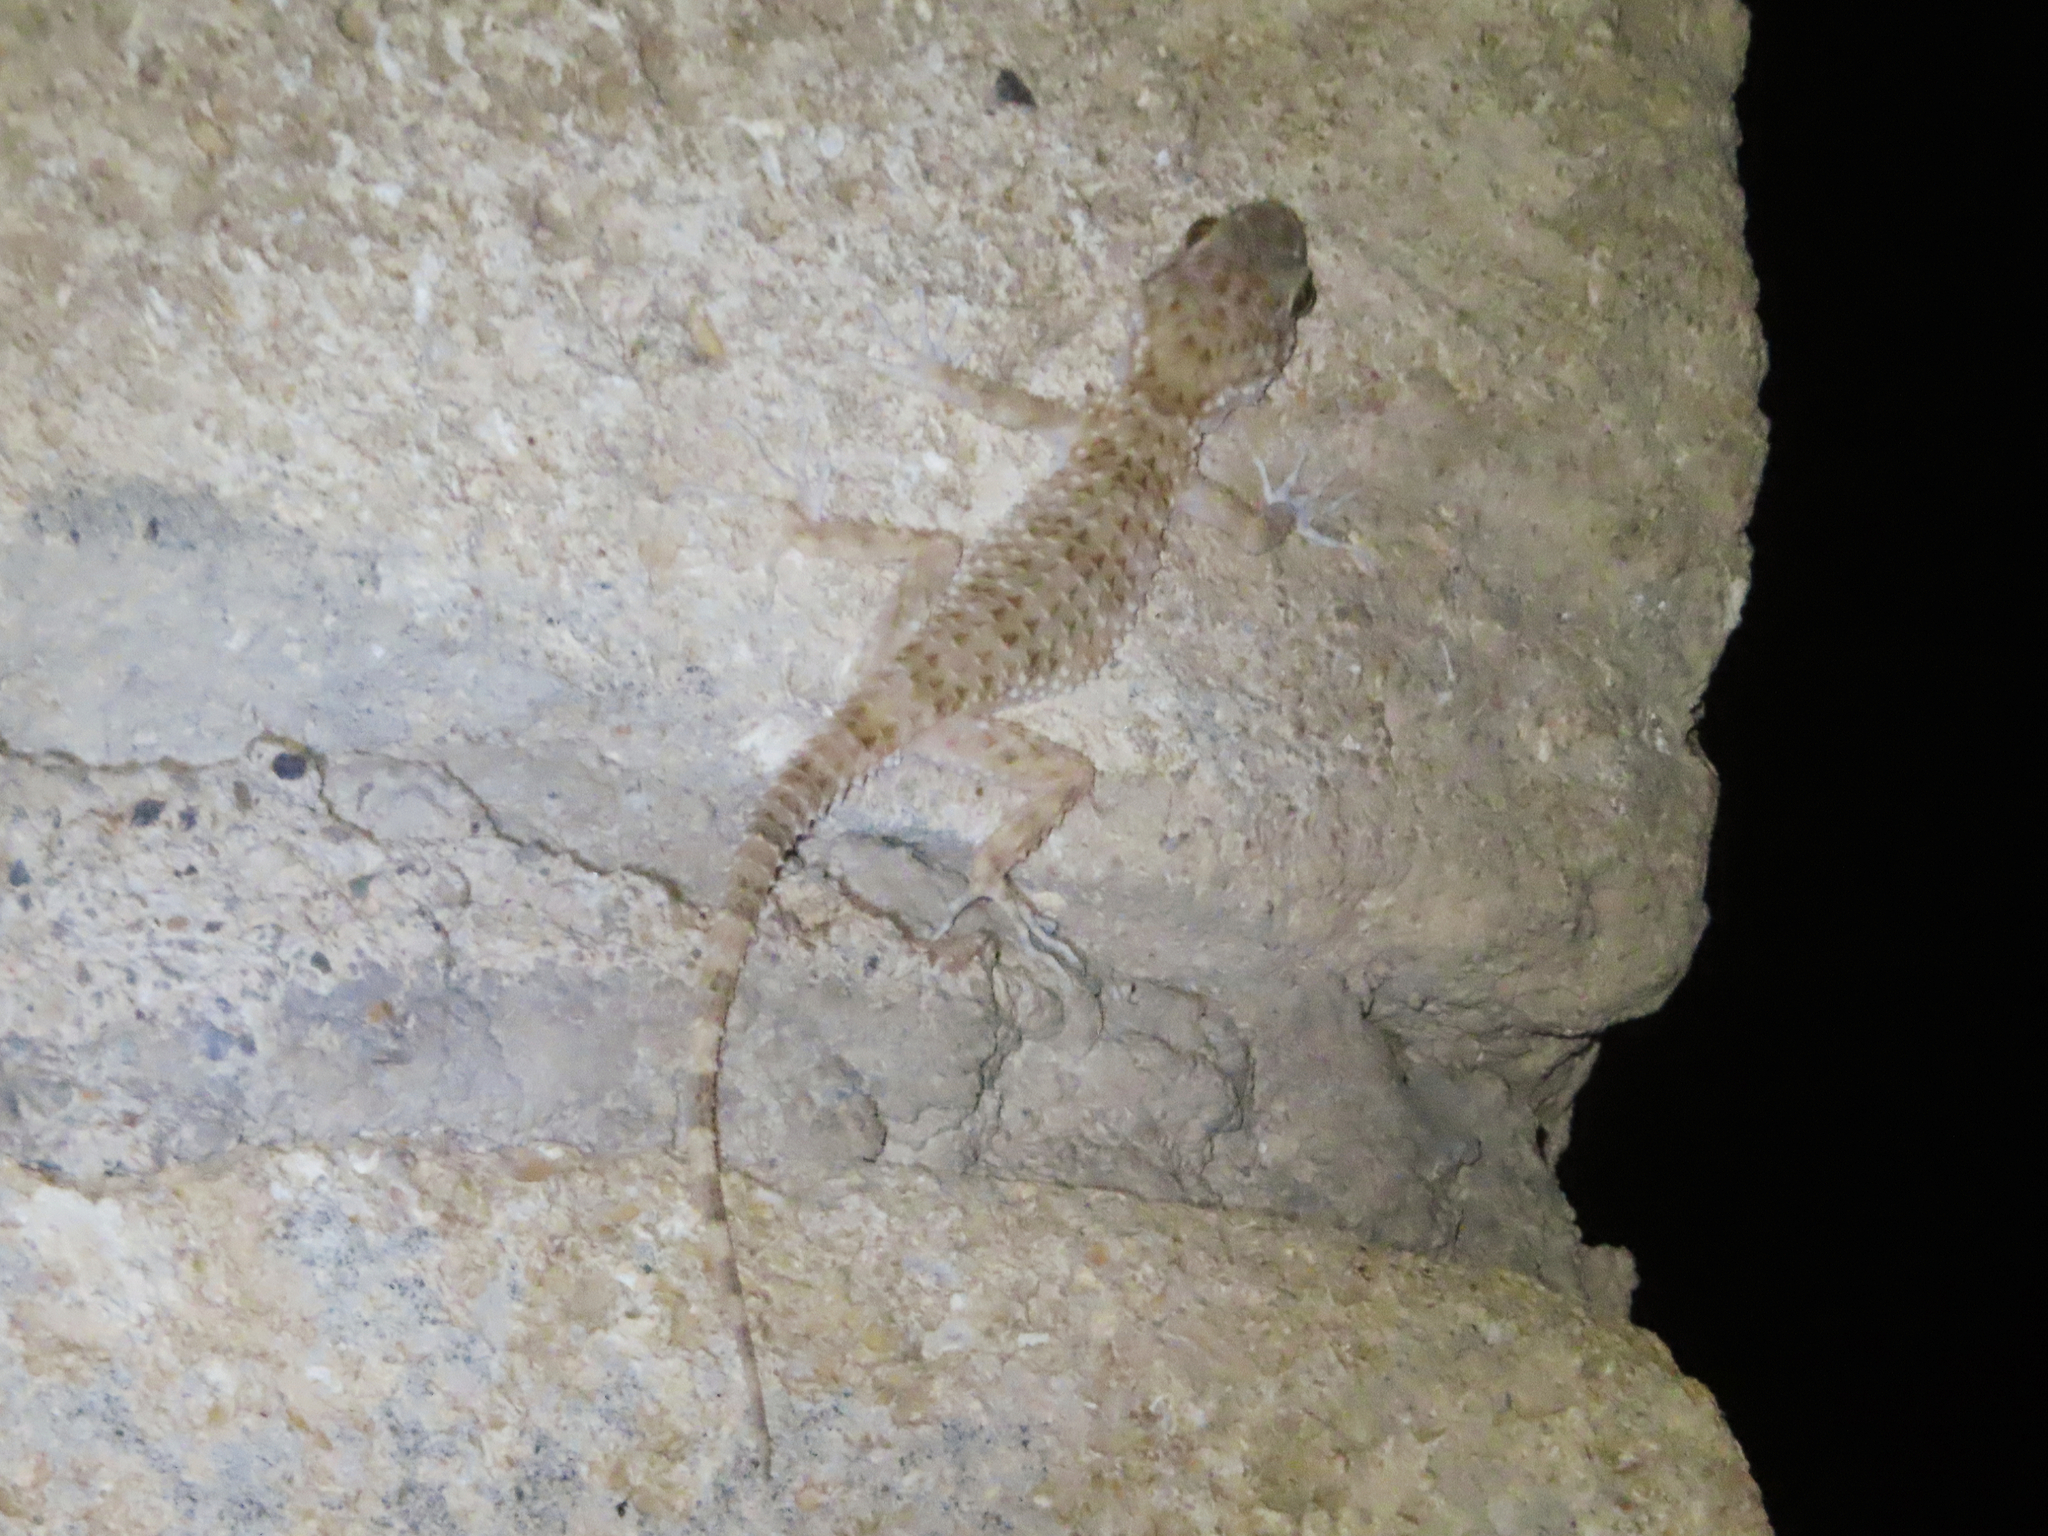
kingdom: Animalia
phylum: Chordata
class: Squamata
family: Gekkonidae
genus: Tenuidactylus
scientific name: Tenuidactylus caspius
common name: Caspian bent-toed gecko
